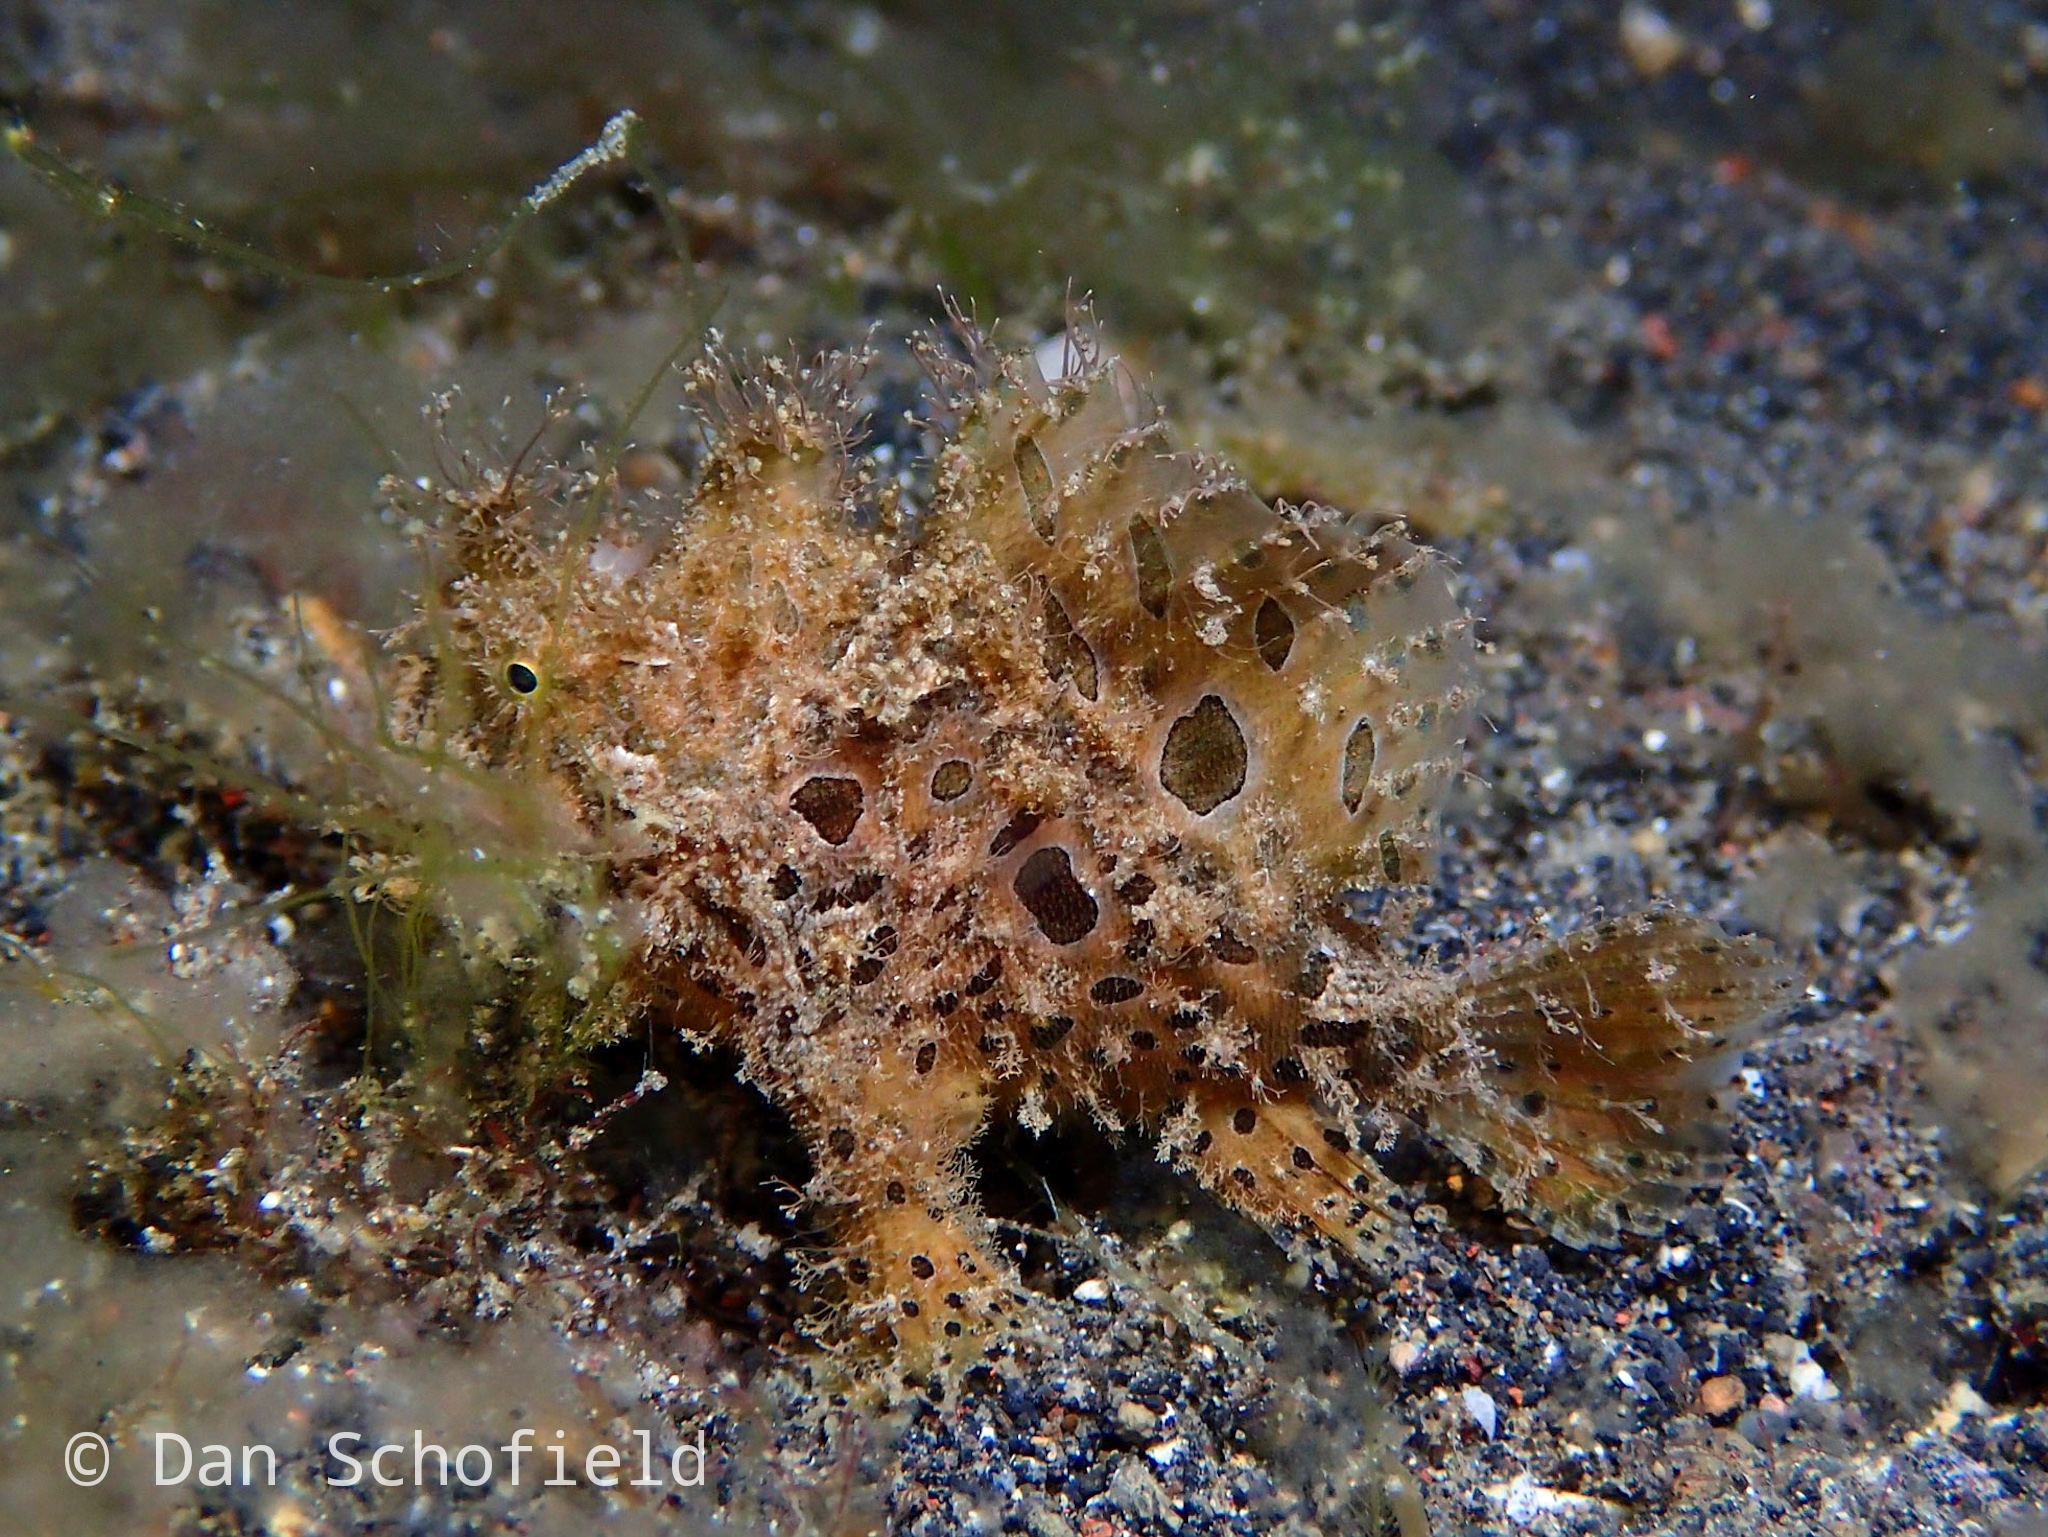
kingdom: Animalia
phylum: Chordata
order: Lophiiformes
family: Antennariidae
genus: Antennarius
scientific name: Antennarius striatus
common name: Striated frogfish
